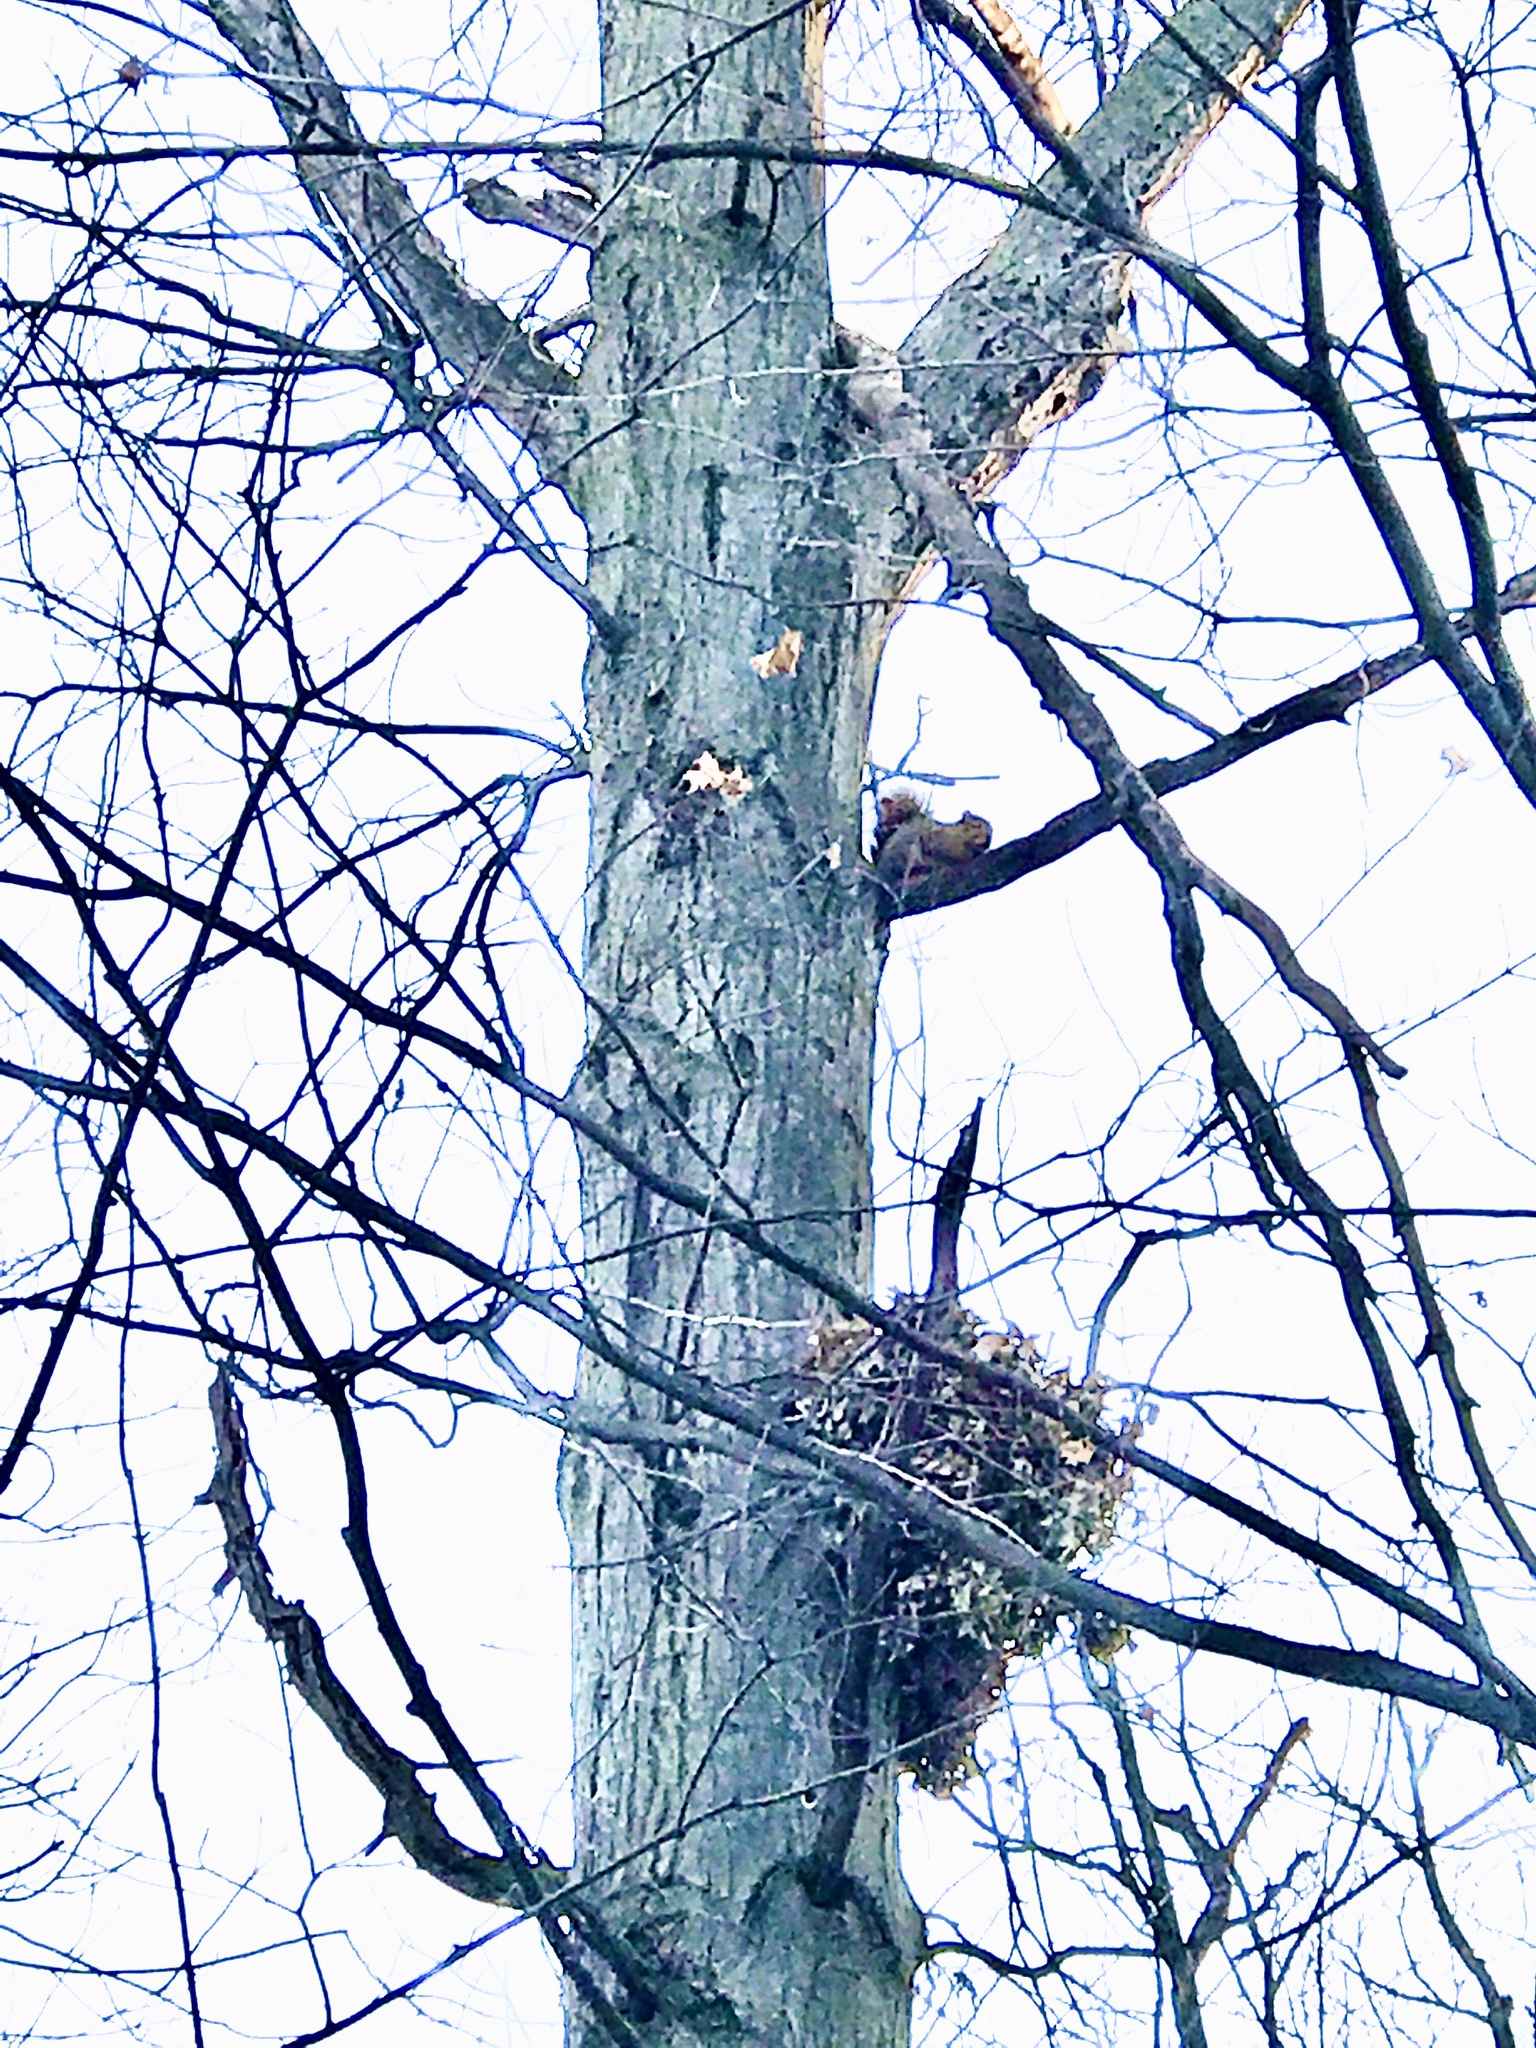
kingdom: Animalia
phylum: Chordata
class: Mammalia
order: Rodentia
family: Sciuridae
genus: Sciurus
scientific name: Sciurus niger
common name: Fox squirrel
